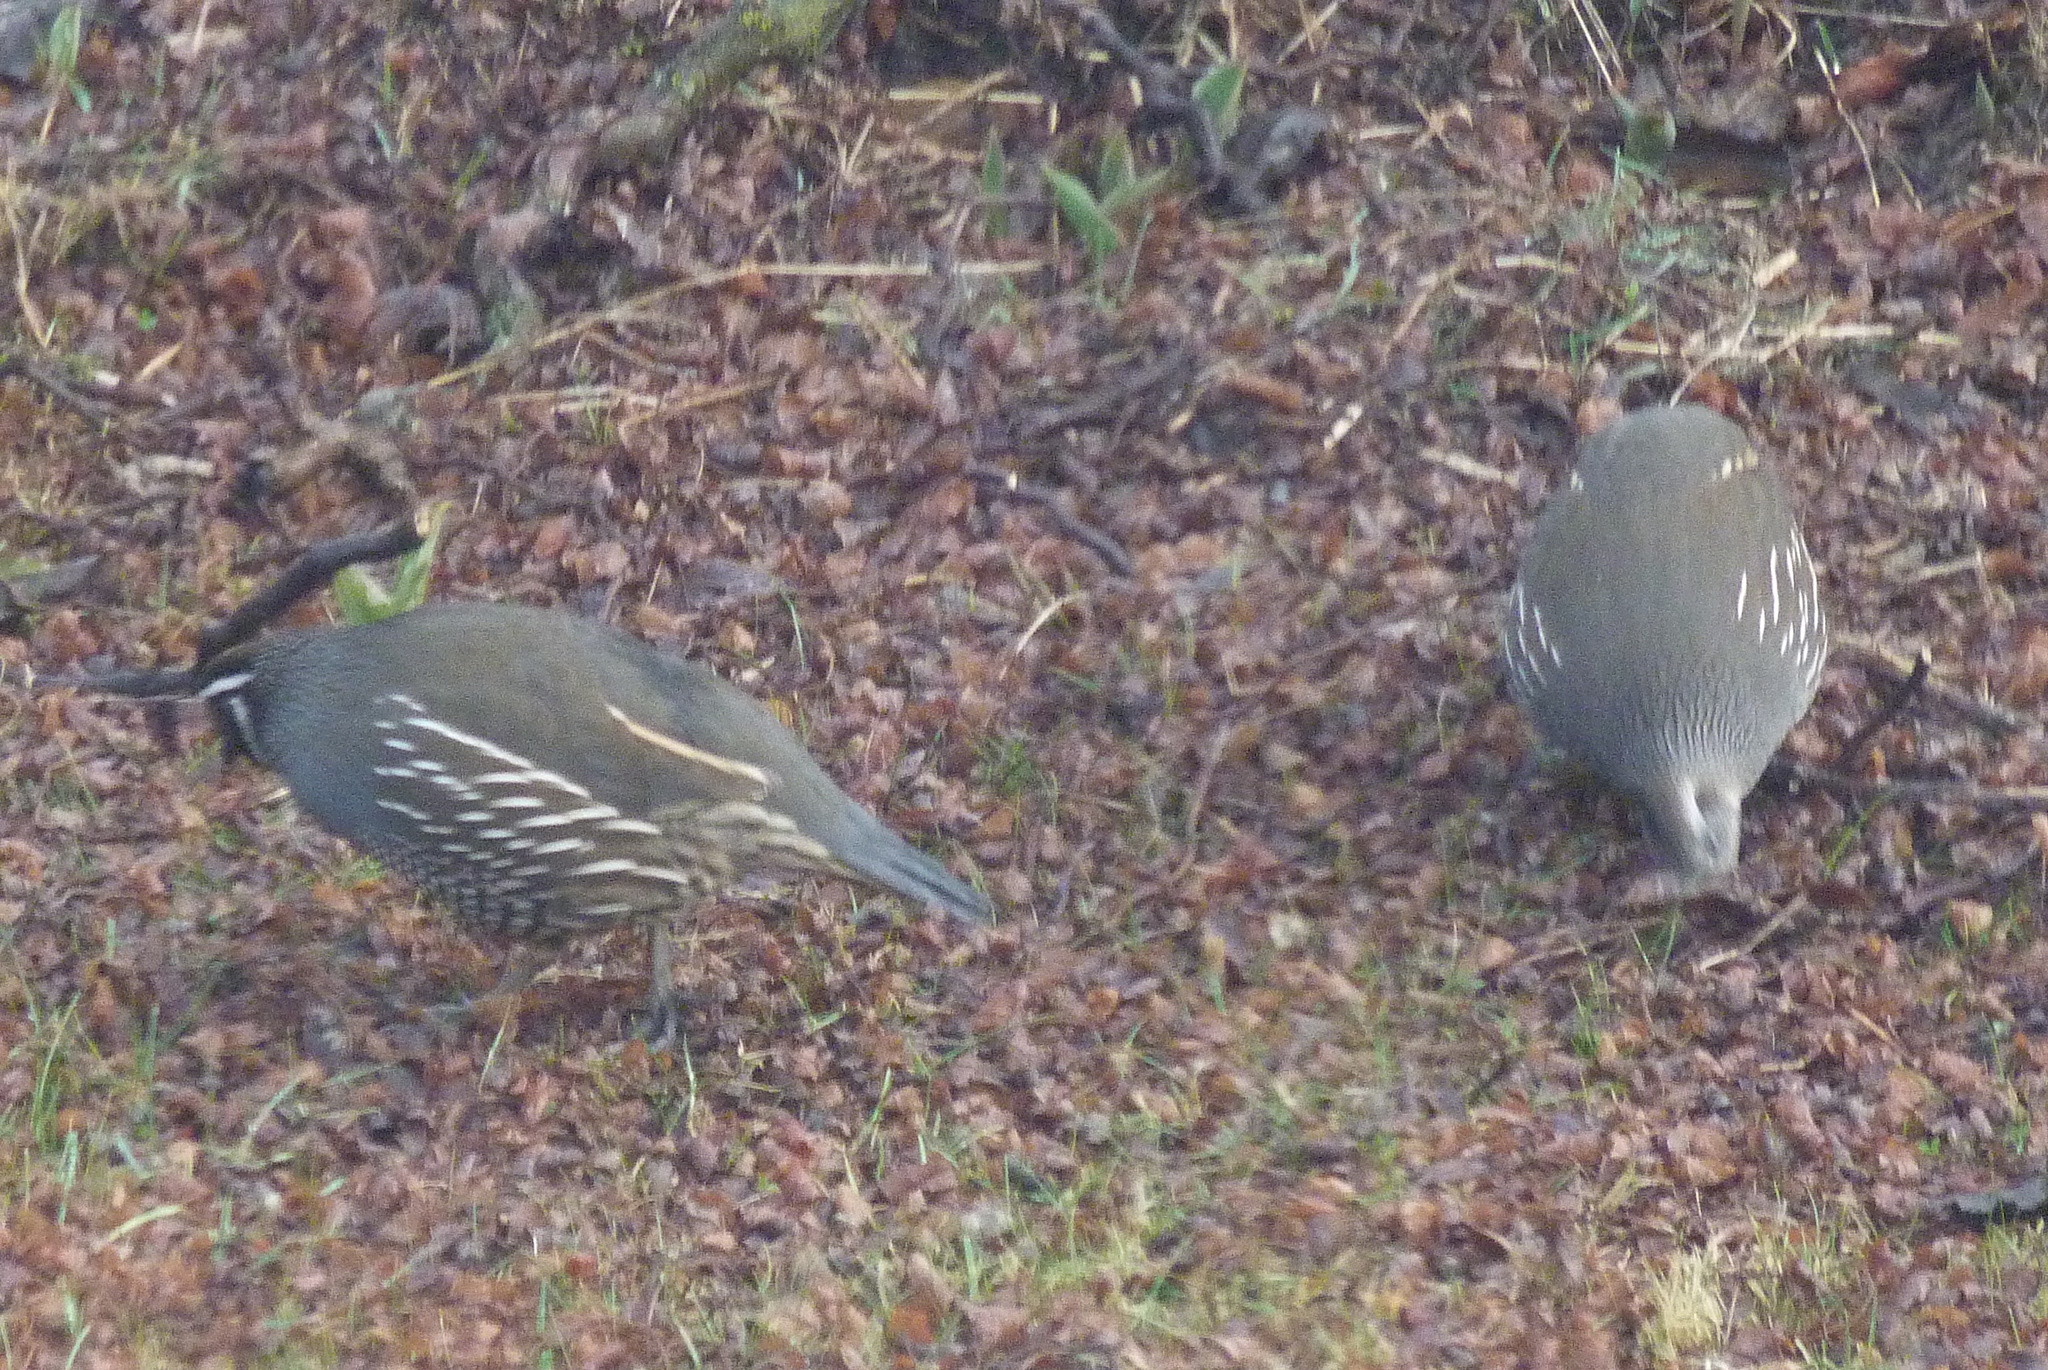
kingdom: Animalia
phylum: Chordata
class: Aves
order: Galliformes
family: Odontophoridae
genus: Callipepla
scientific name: Callipepla californica
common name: California quail
